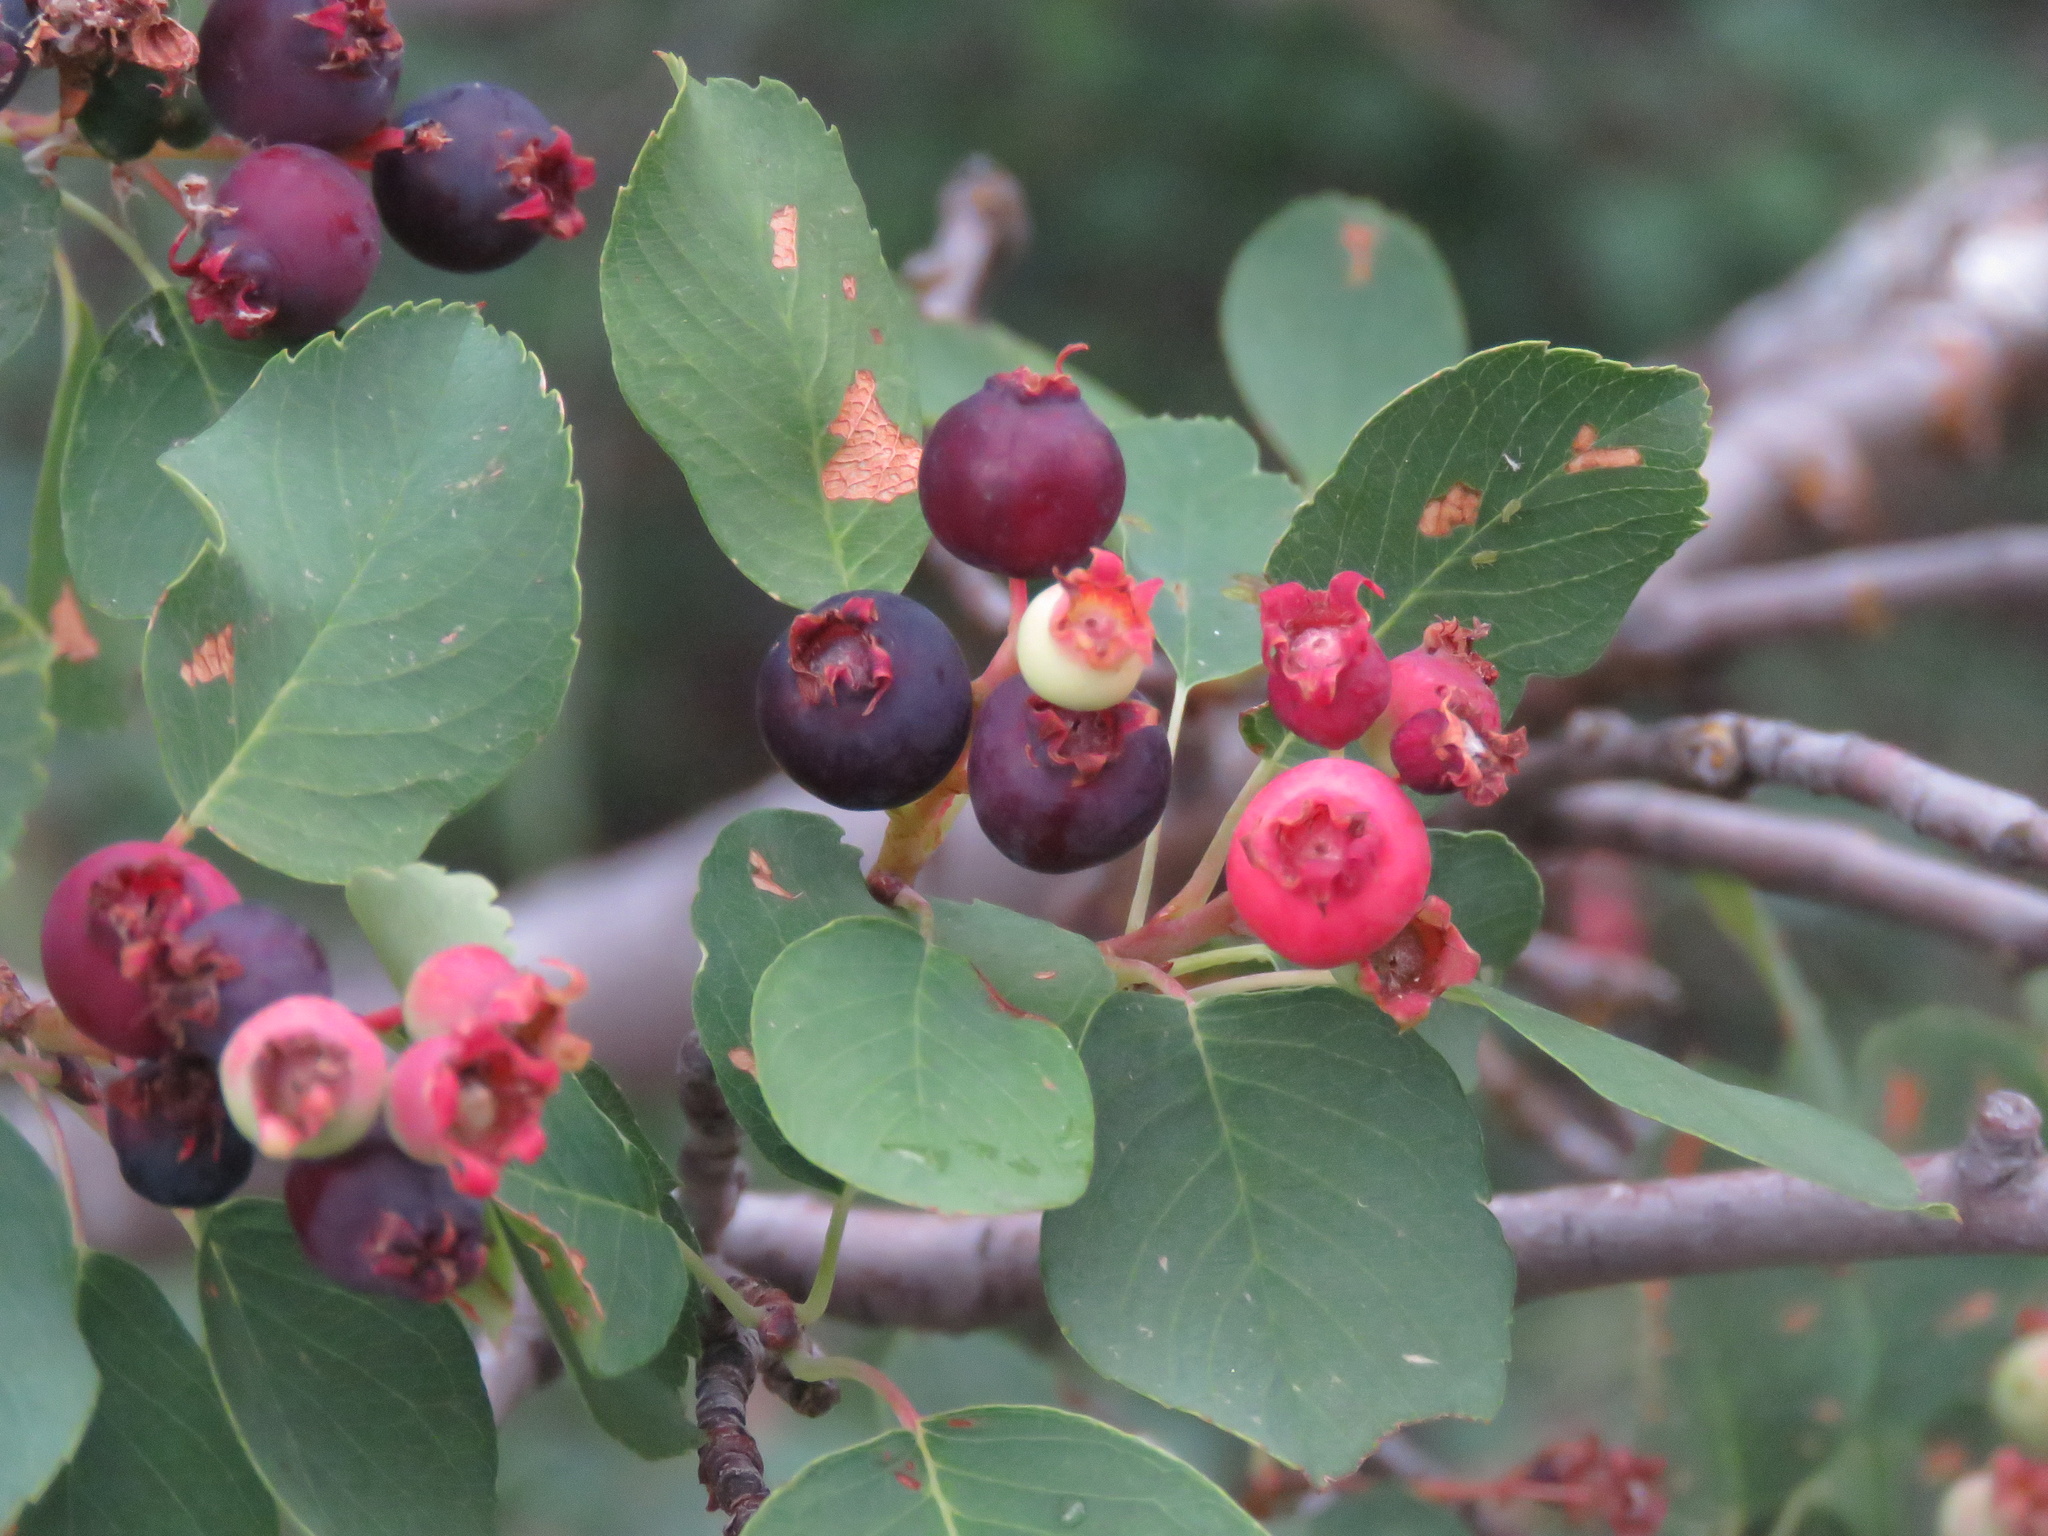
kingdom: Plantae
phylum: Tracheophyta
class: Magnoliopsida
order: Rosales
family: Rosaceae
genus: Amelanchier
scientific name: Amelanchier alnifolia
